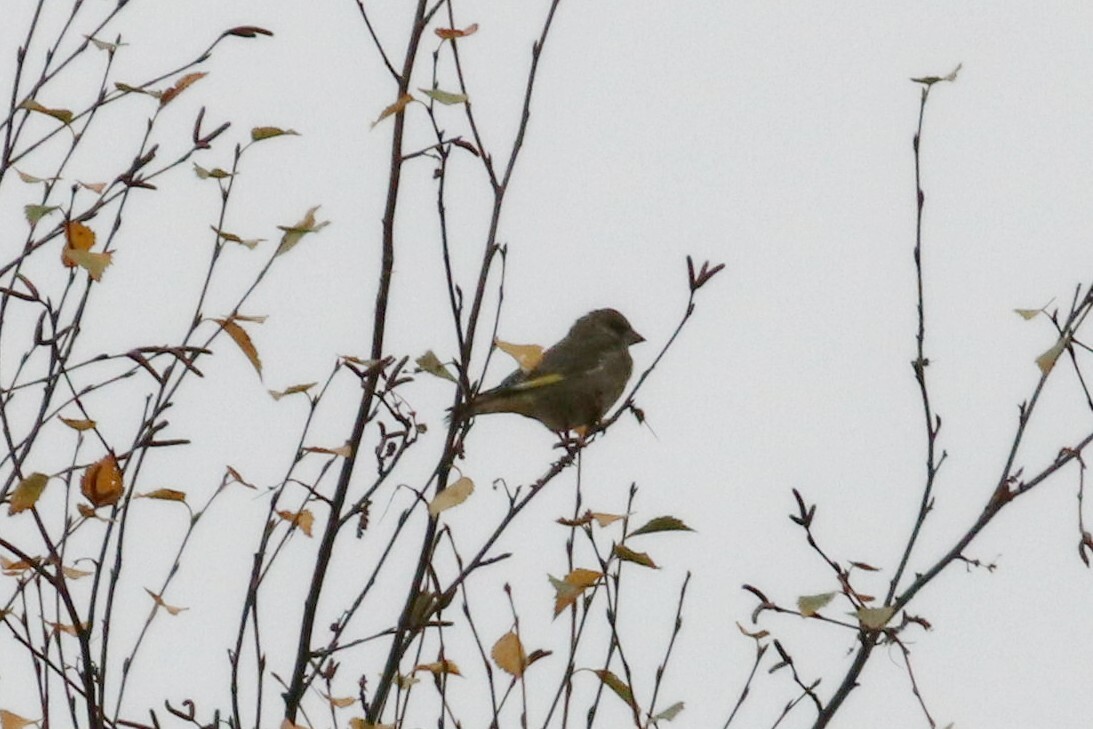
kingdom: Plantae
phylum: Tracheophyta
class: Liliopsida
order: Poales
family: Poaceae
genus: Chloris
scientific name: Chloris chloris
